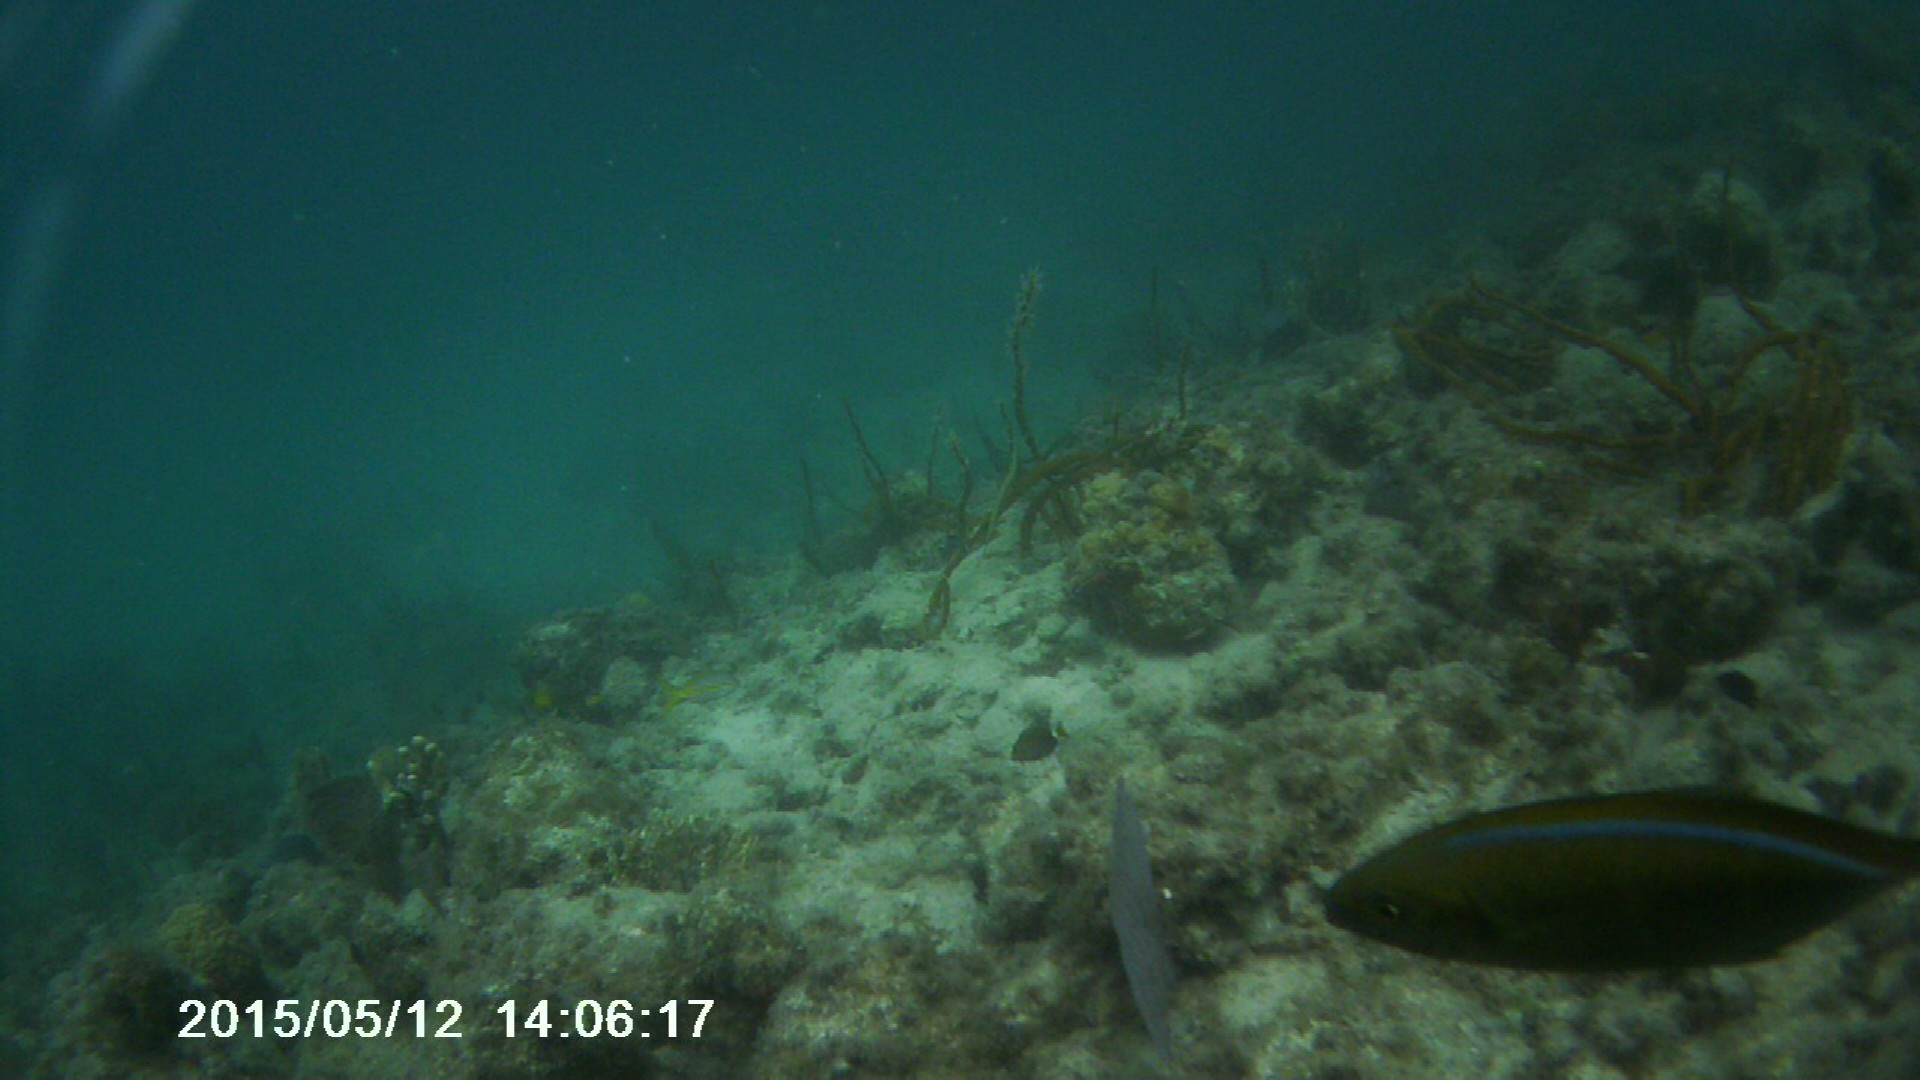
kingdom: Animalia
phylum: Chordata
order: Perciformes
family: Carangidae
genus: Caranx
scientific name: Caranx ruber
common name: Bar jack
